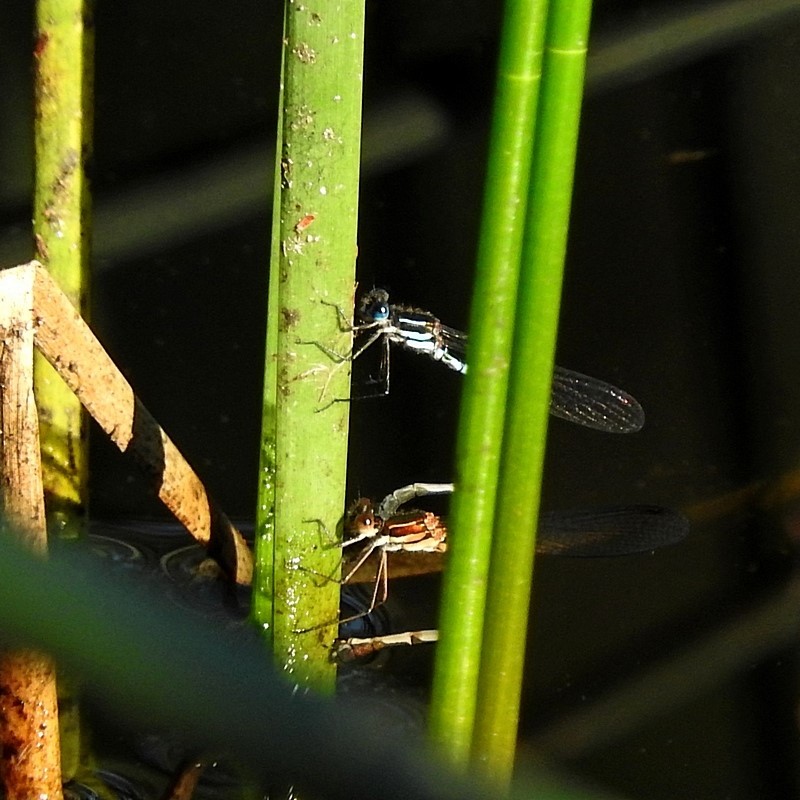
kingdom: Animalia
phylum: Arthropoda
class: Insecta
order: Odonata
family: Lestidae
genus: Austrolestes
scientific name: Austrolestes psyche
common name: Cup ringtail
